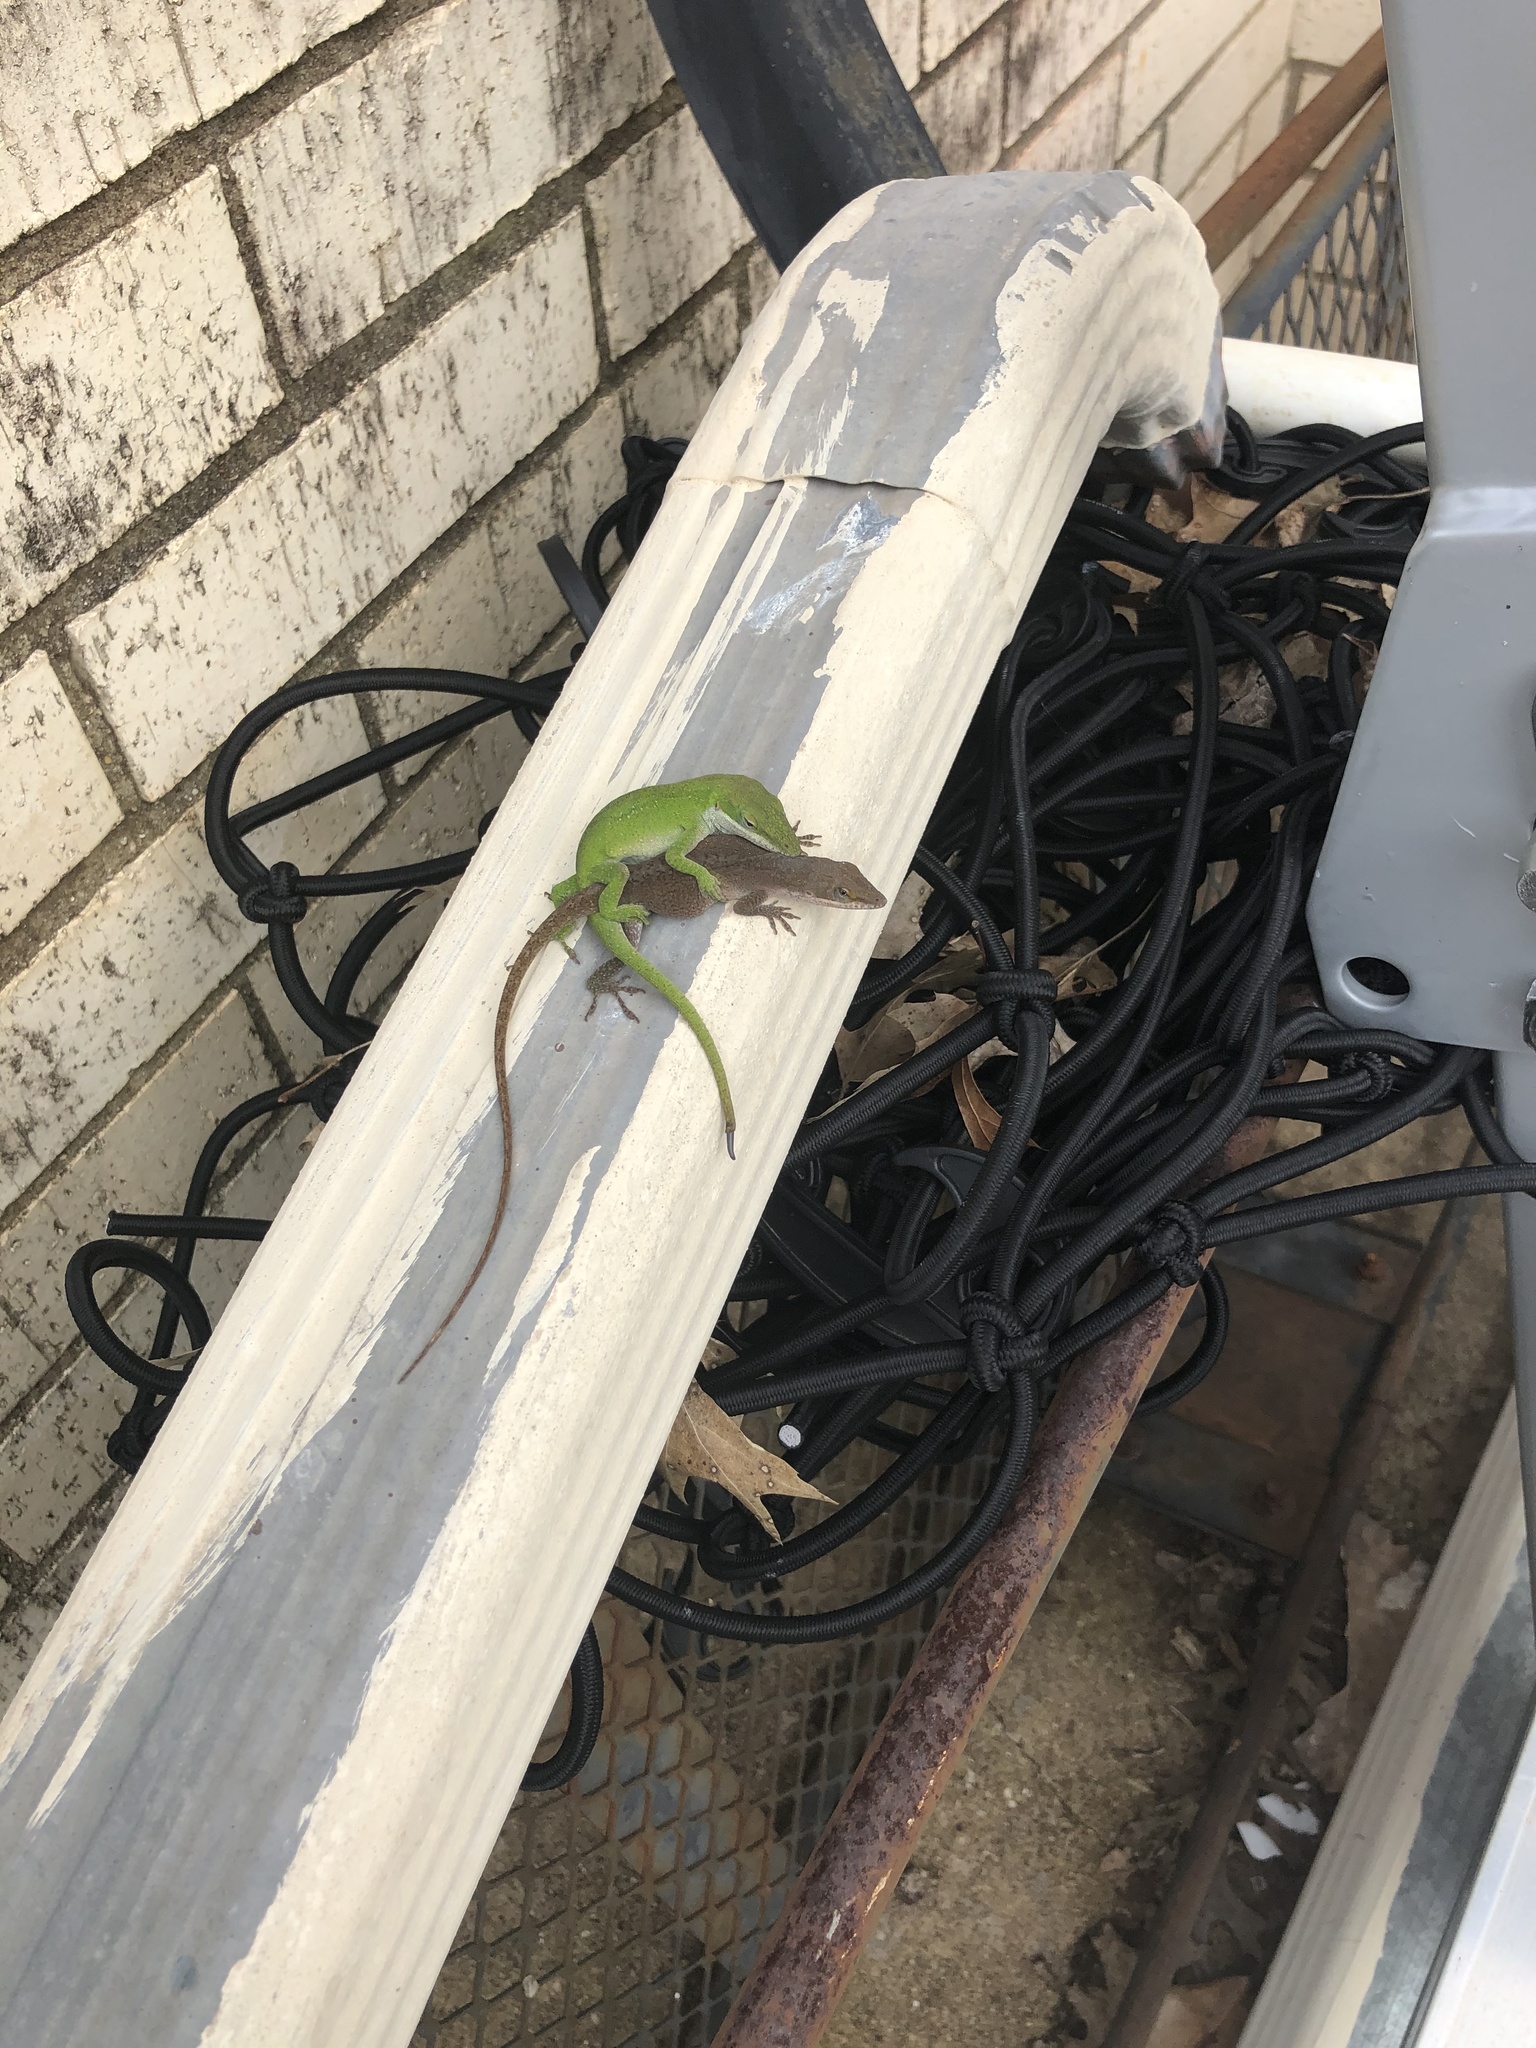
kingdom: Animalia
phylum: Chordata
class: Squamata
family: Dactyloidae
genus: Anolis
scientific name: Anolis carolinensis
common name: Green anole
